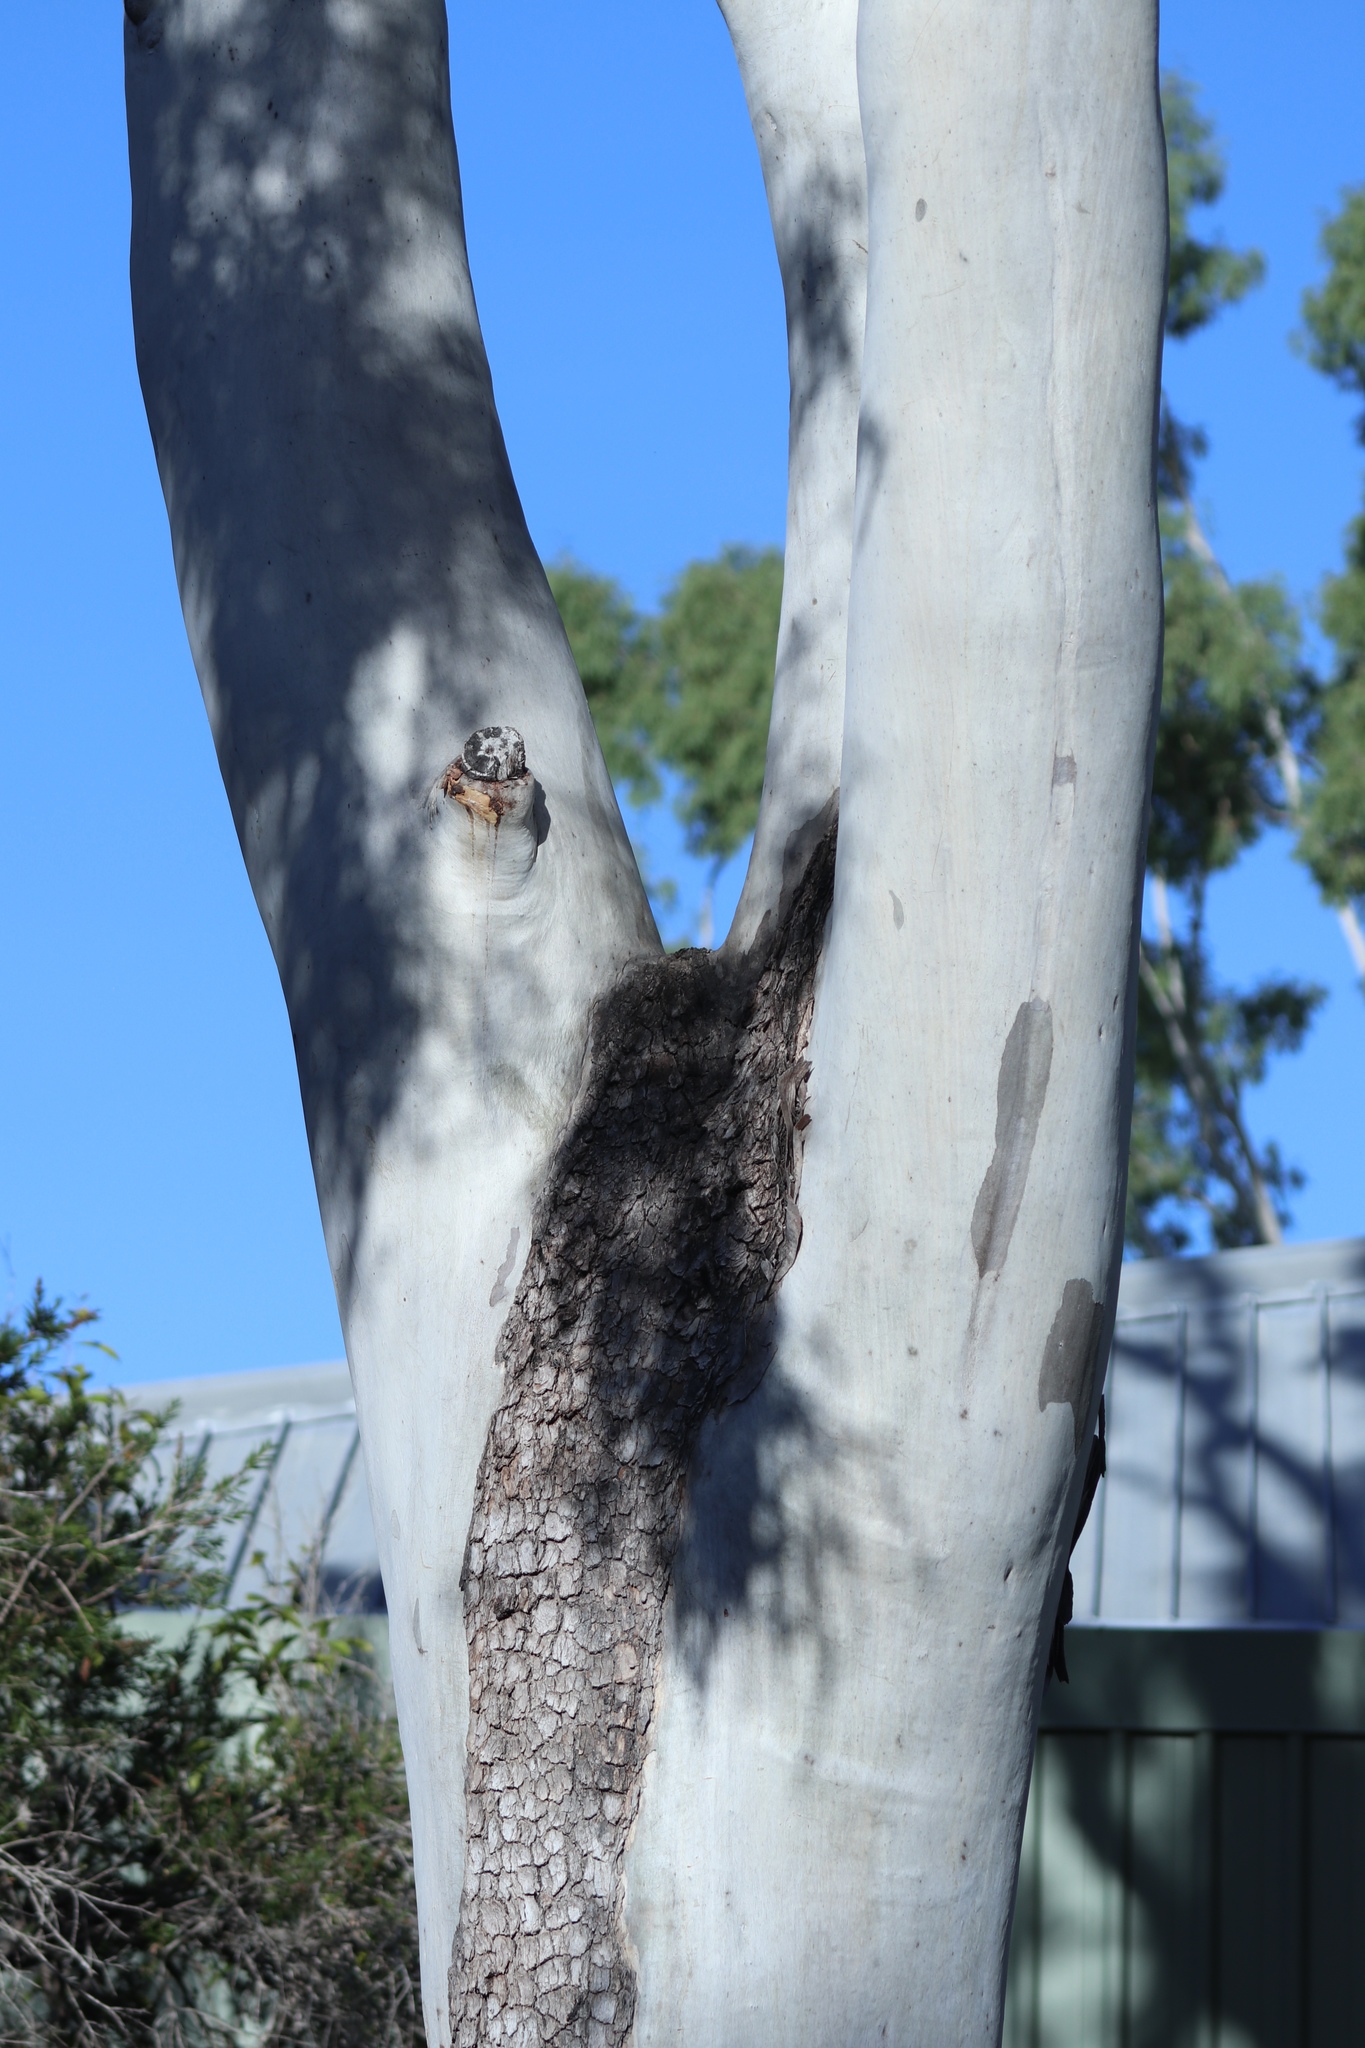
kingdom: Plantae
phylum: Tracheophyta
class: Magnoliopsida
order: Myrtales
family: Myrtaceae
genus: Corymbia
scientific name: Corymbia tessellaris
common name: Carbeen
